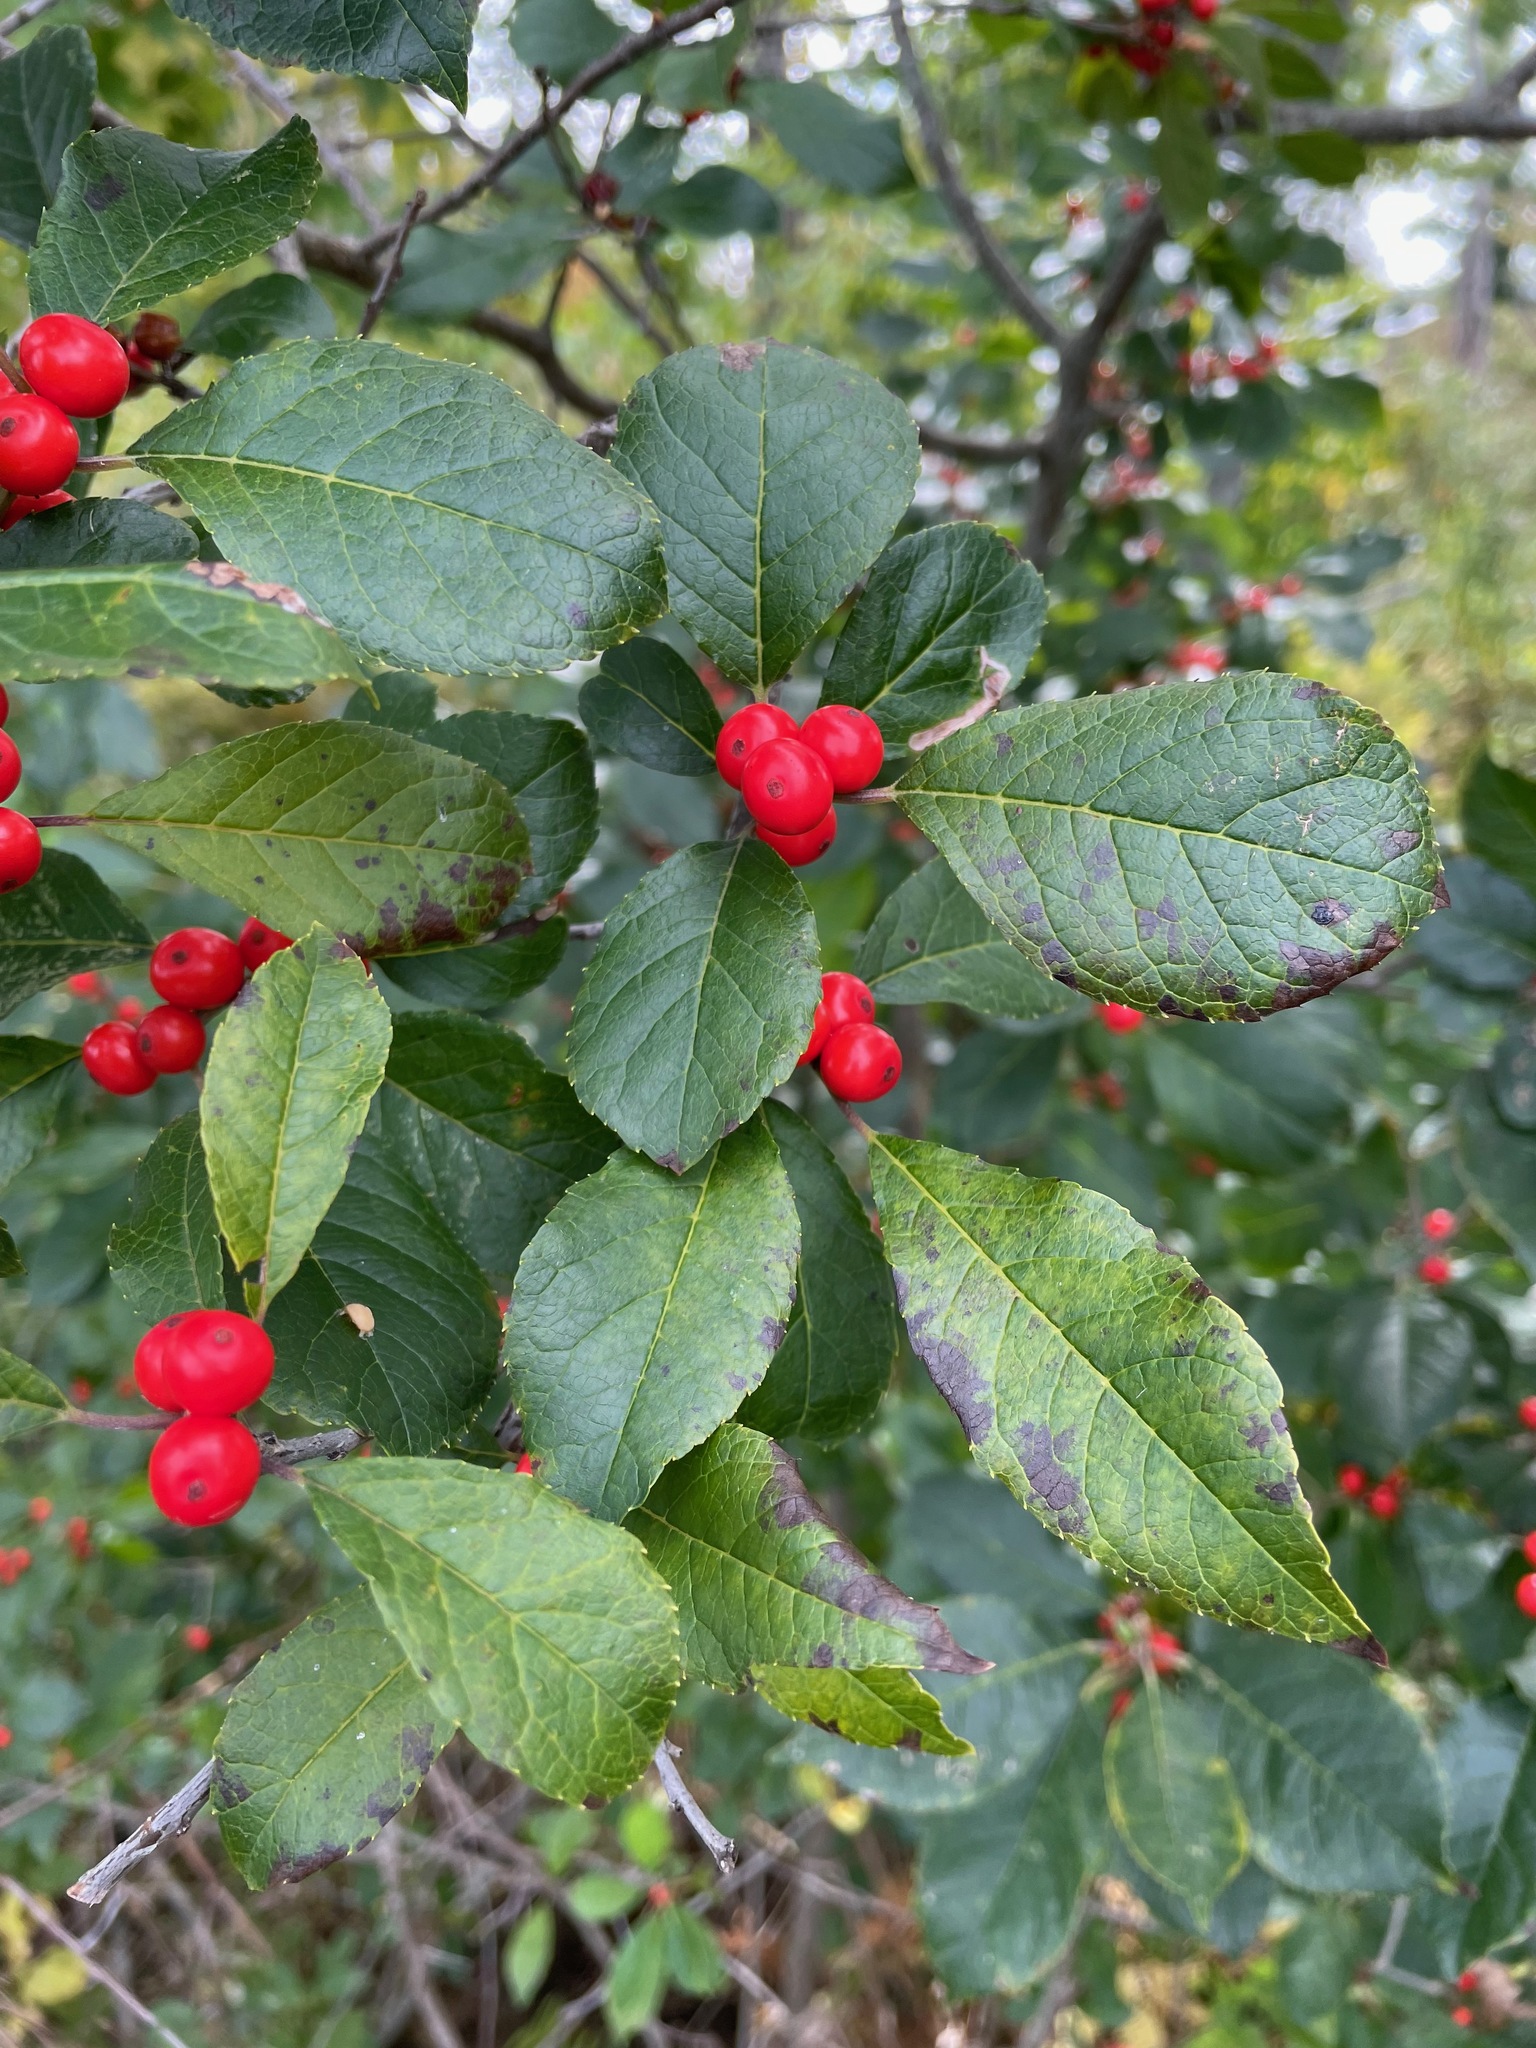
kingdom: Plantae
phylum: Tracheophyta
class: Magnoliopsida
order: Aquifoliales
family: Aquifoliaceae
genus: Ilex
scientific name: Ilex verticillata
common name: Virginia winterberry
